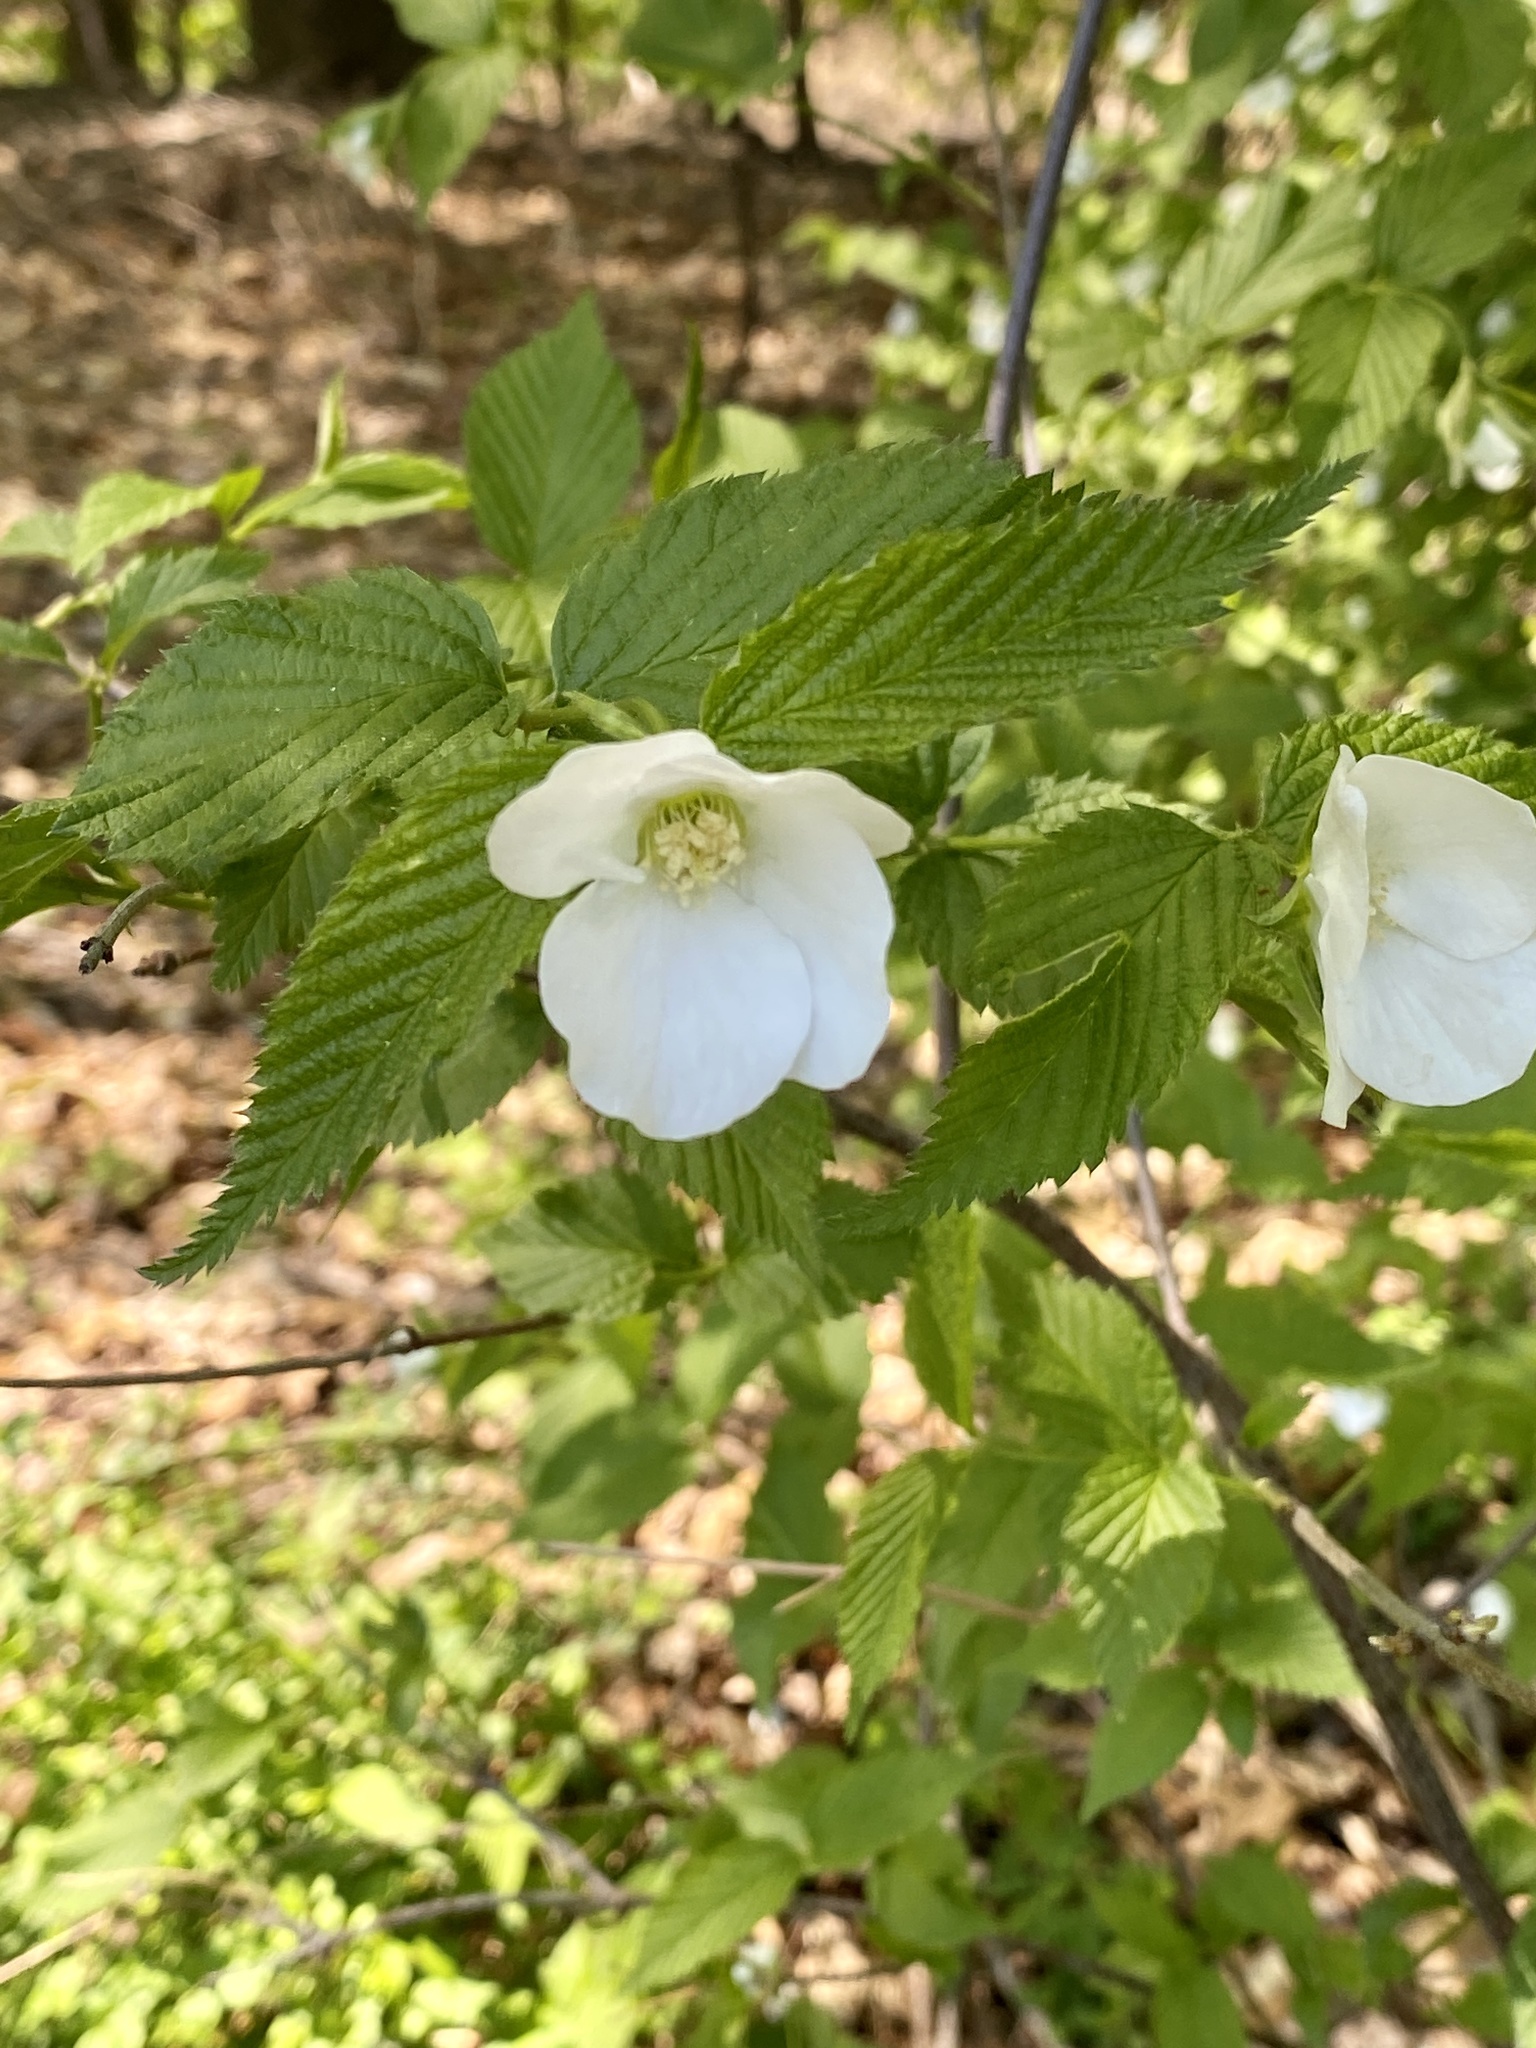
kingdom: Plantae
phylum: Tracheophyta
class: Magnoliopsida
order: Rosales
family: Rosaceae
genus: Rhodotypos
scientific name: Rhodotypos scandens
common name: Jetbead
